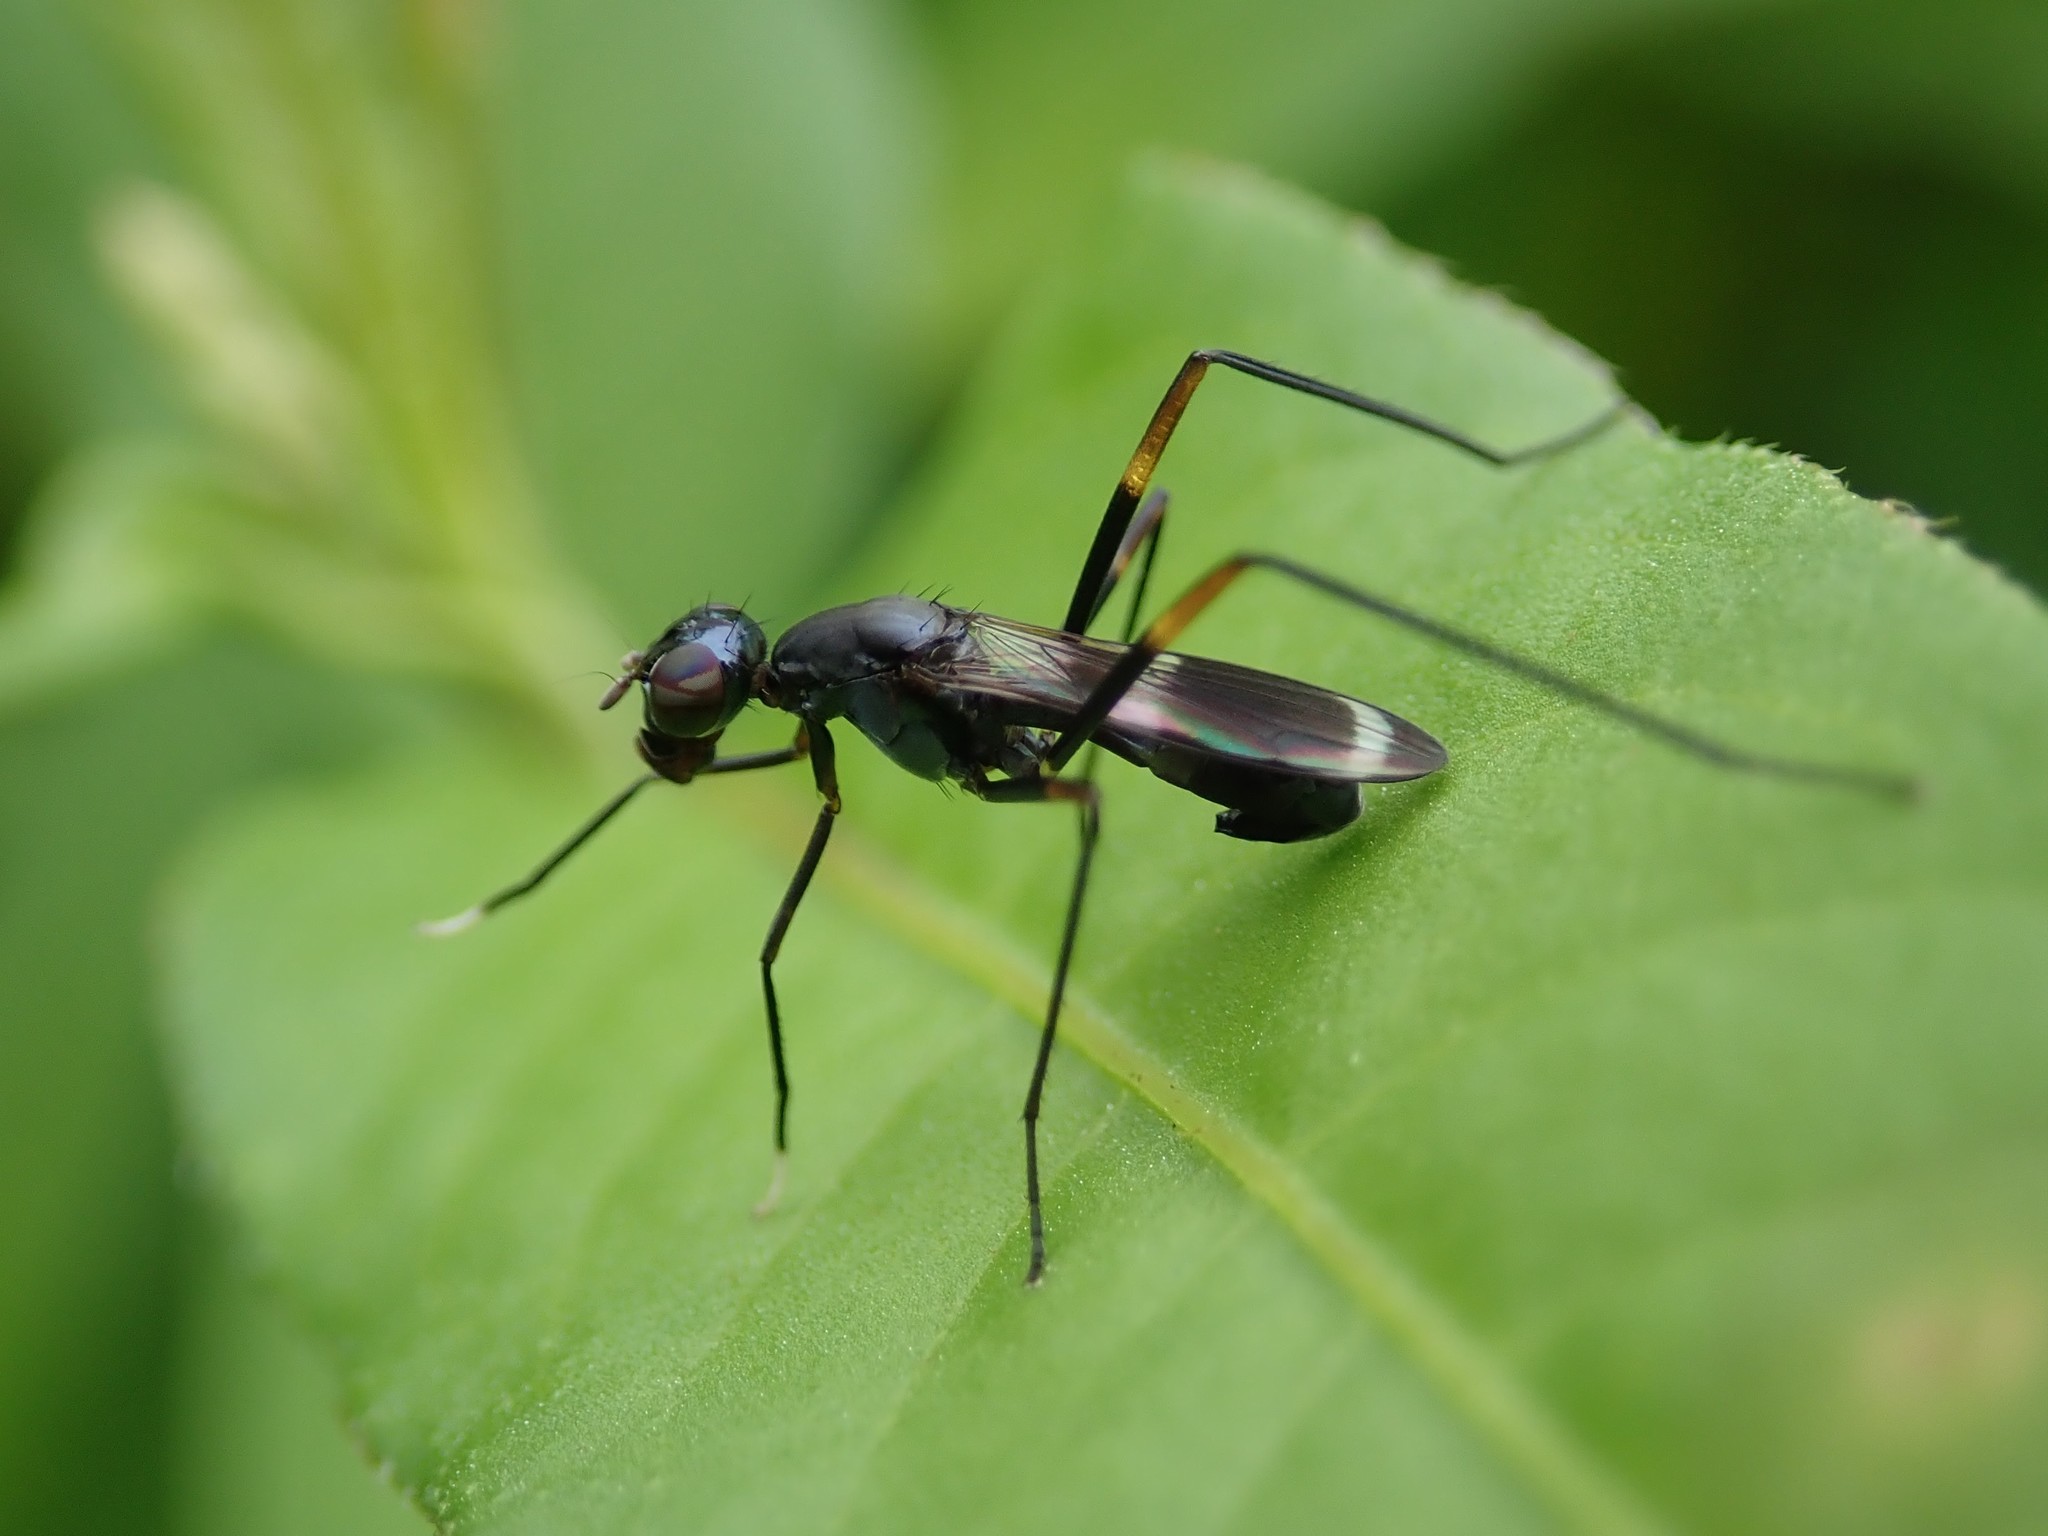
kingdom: Animalia
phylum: Arthropoda
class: Insecta
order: Diptera
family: Micropezidae
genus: Taeniaptera
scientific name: Taeniaptera trivittata
